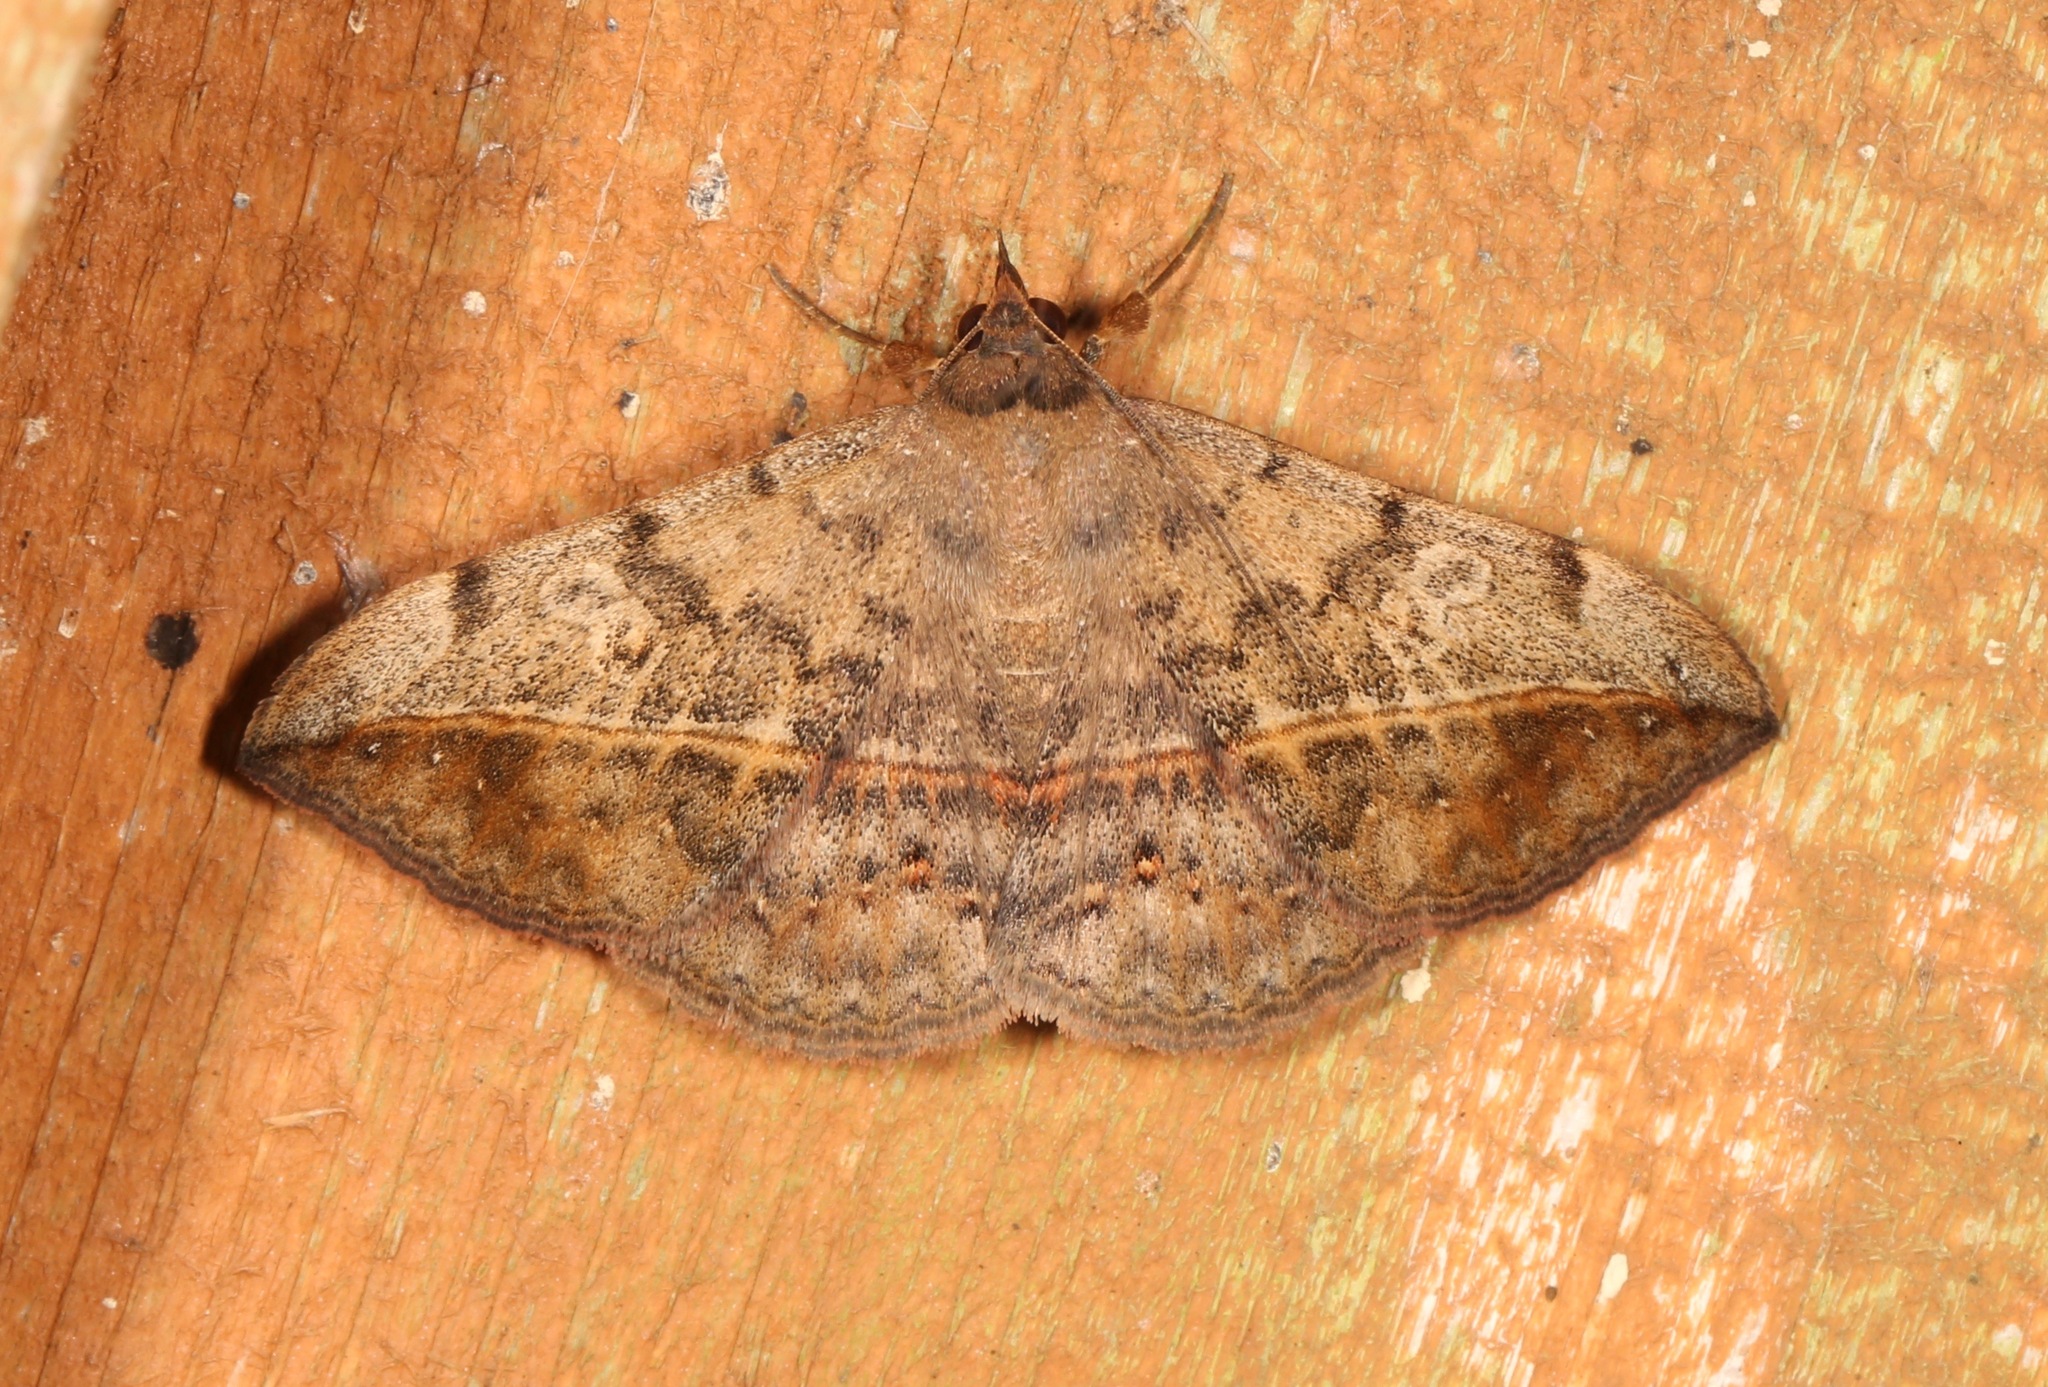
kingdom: Animalia
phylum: Arthropoda
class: Insecta
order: Lepidoptera
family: Erebidae
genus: Anticarsia
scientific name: Anticarsia gemmatalis
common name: Cutworm moth
